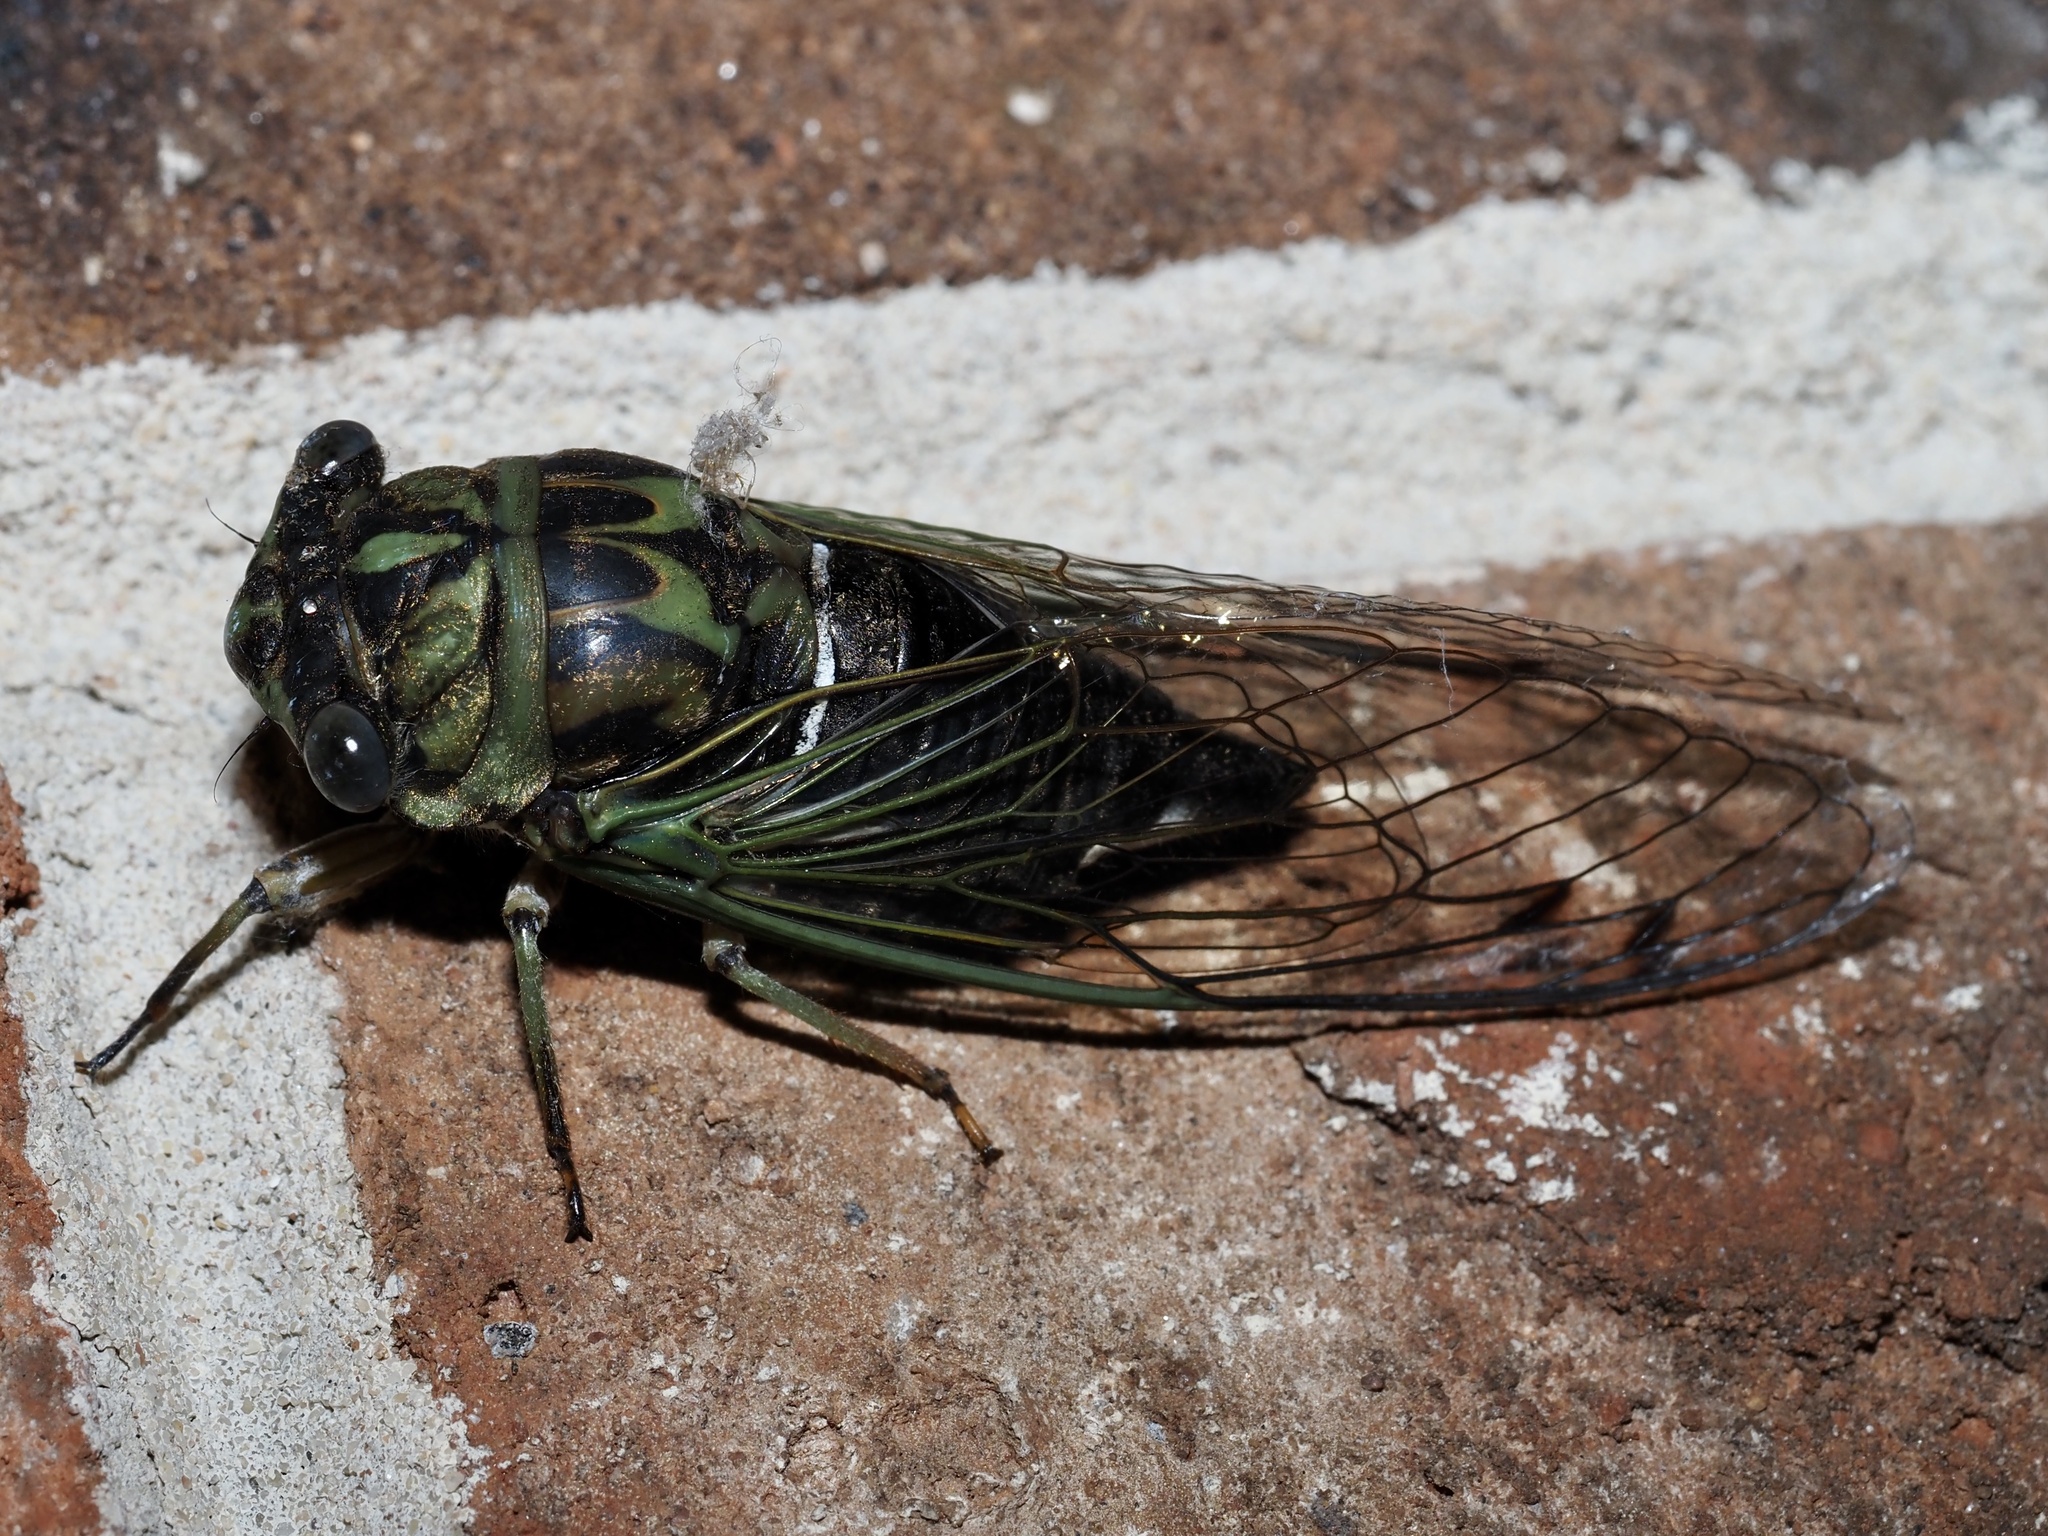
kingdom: Animalia
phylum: Arthropoda
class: Insecta
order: Hemiptera
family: Cicadidae
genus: Neotibicen
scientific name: Neotibicen robinsonianus
